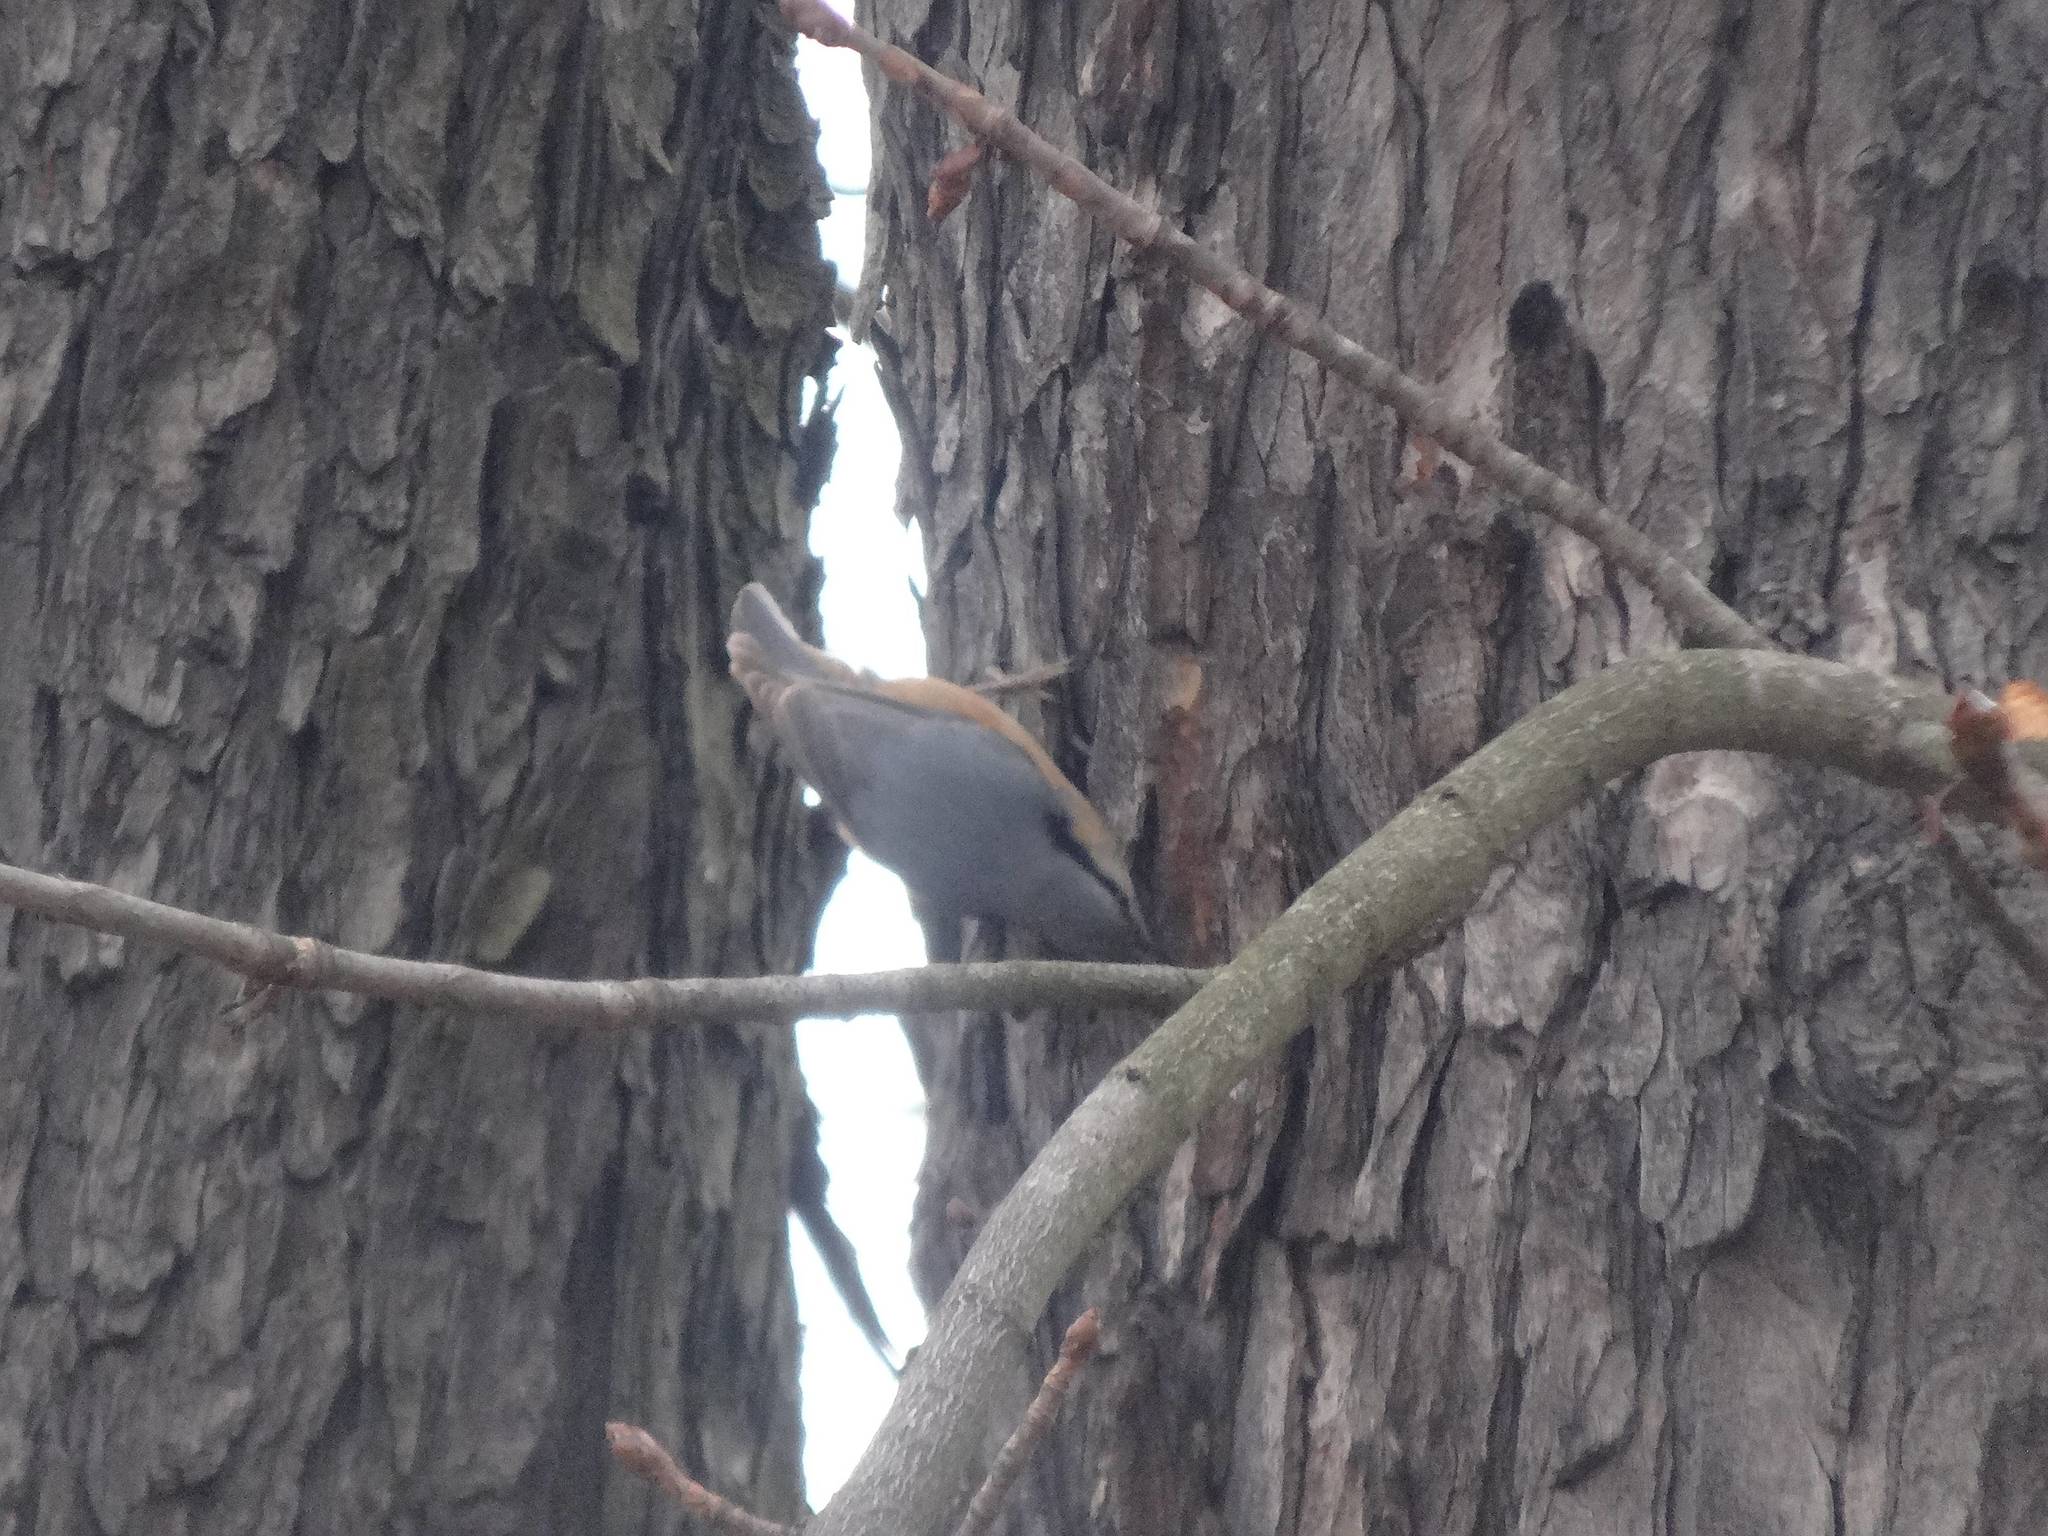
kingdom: Animalia
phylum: Chordata
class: Aves
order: Passeriformes
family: Sittidae
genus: Sitta
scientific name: Sitta europaea
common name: Eurasian nuthatch
